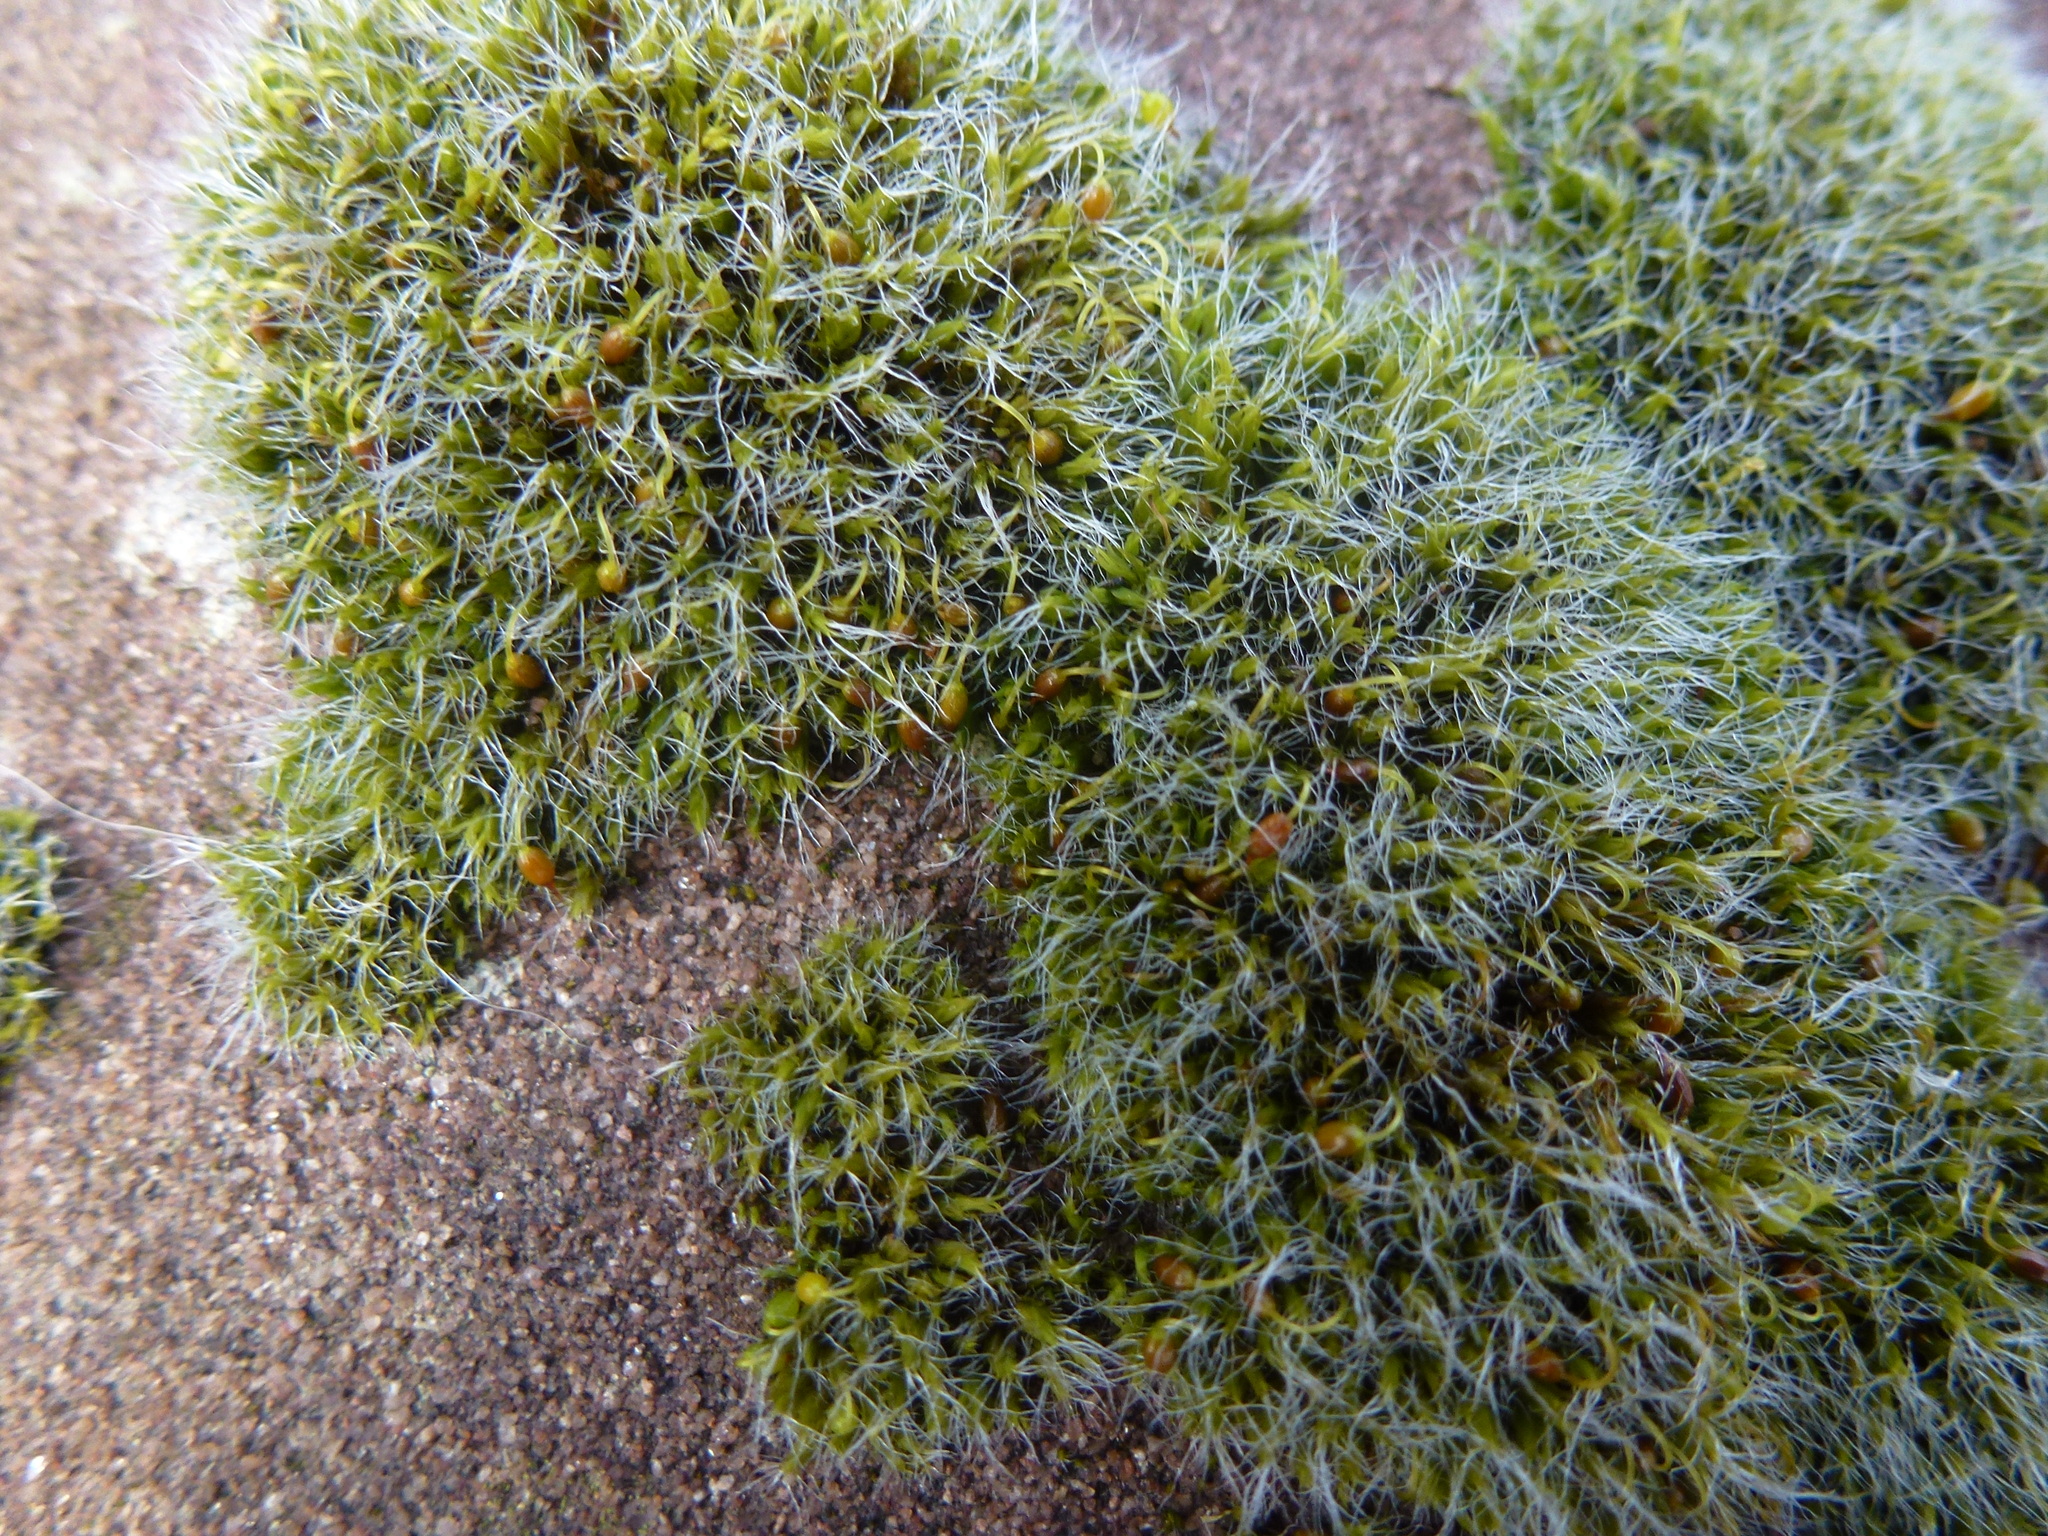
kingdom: Plantae
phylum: Bryophyta
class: Bryopsida
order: Grimmiales
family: Grimmiaceae
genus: Grimmia
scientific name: Grimmia pulvinata
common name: Grey-cushioned grimmia
